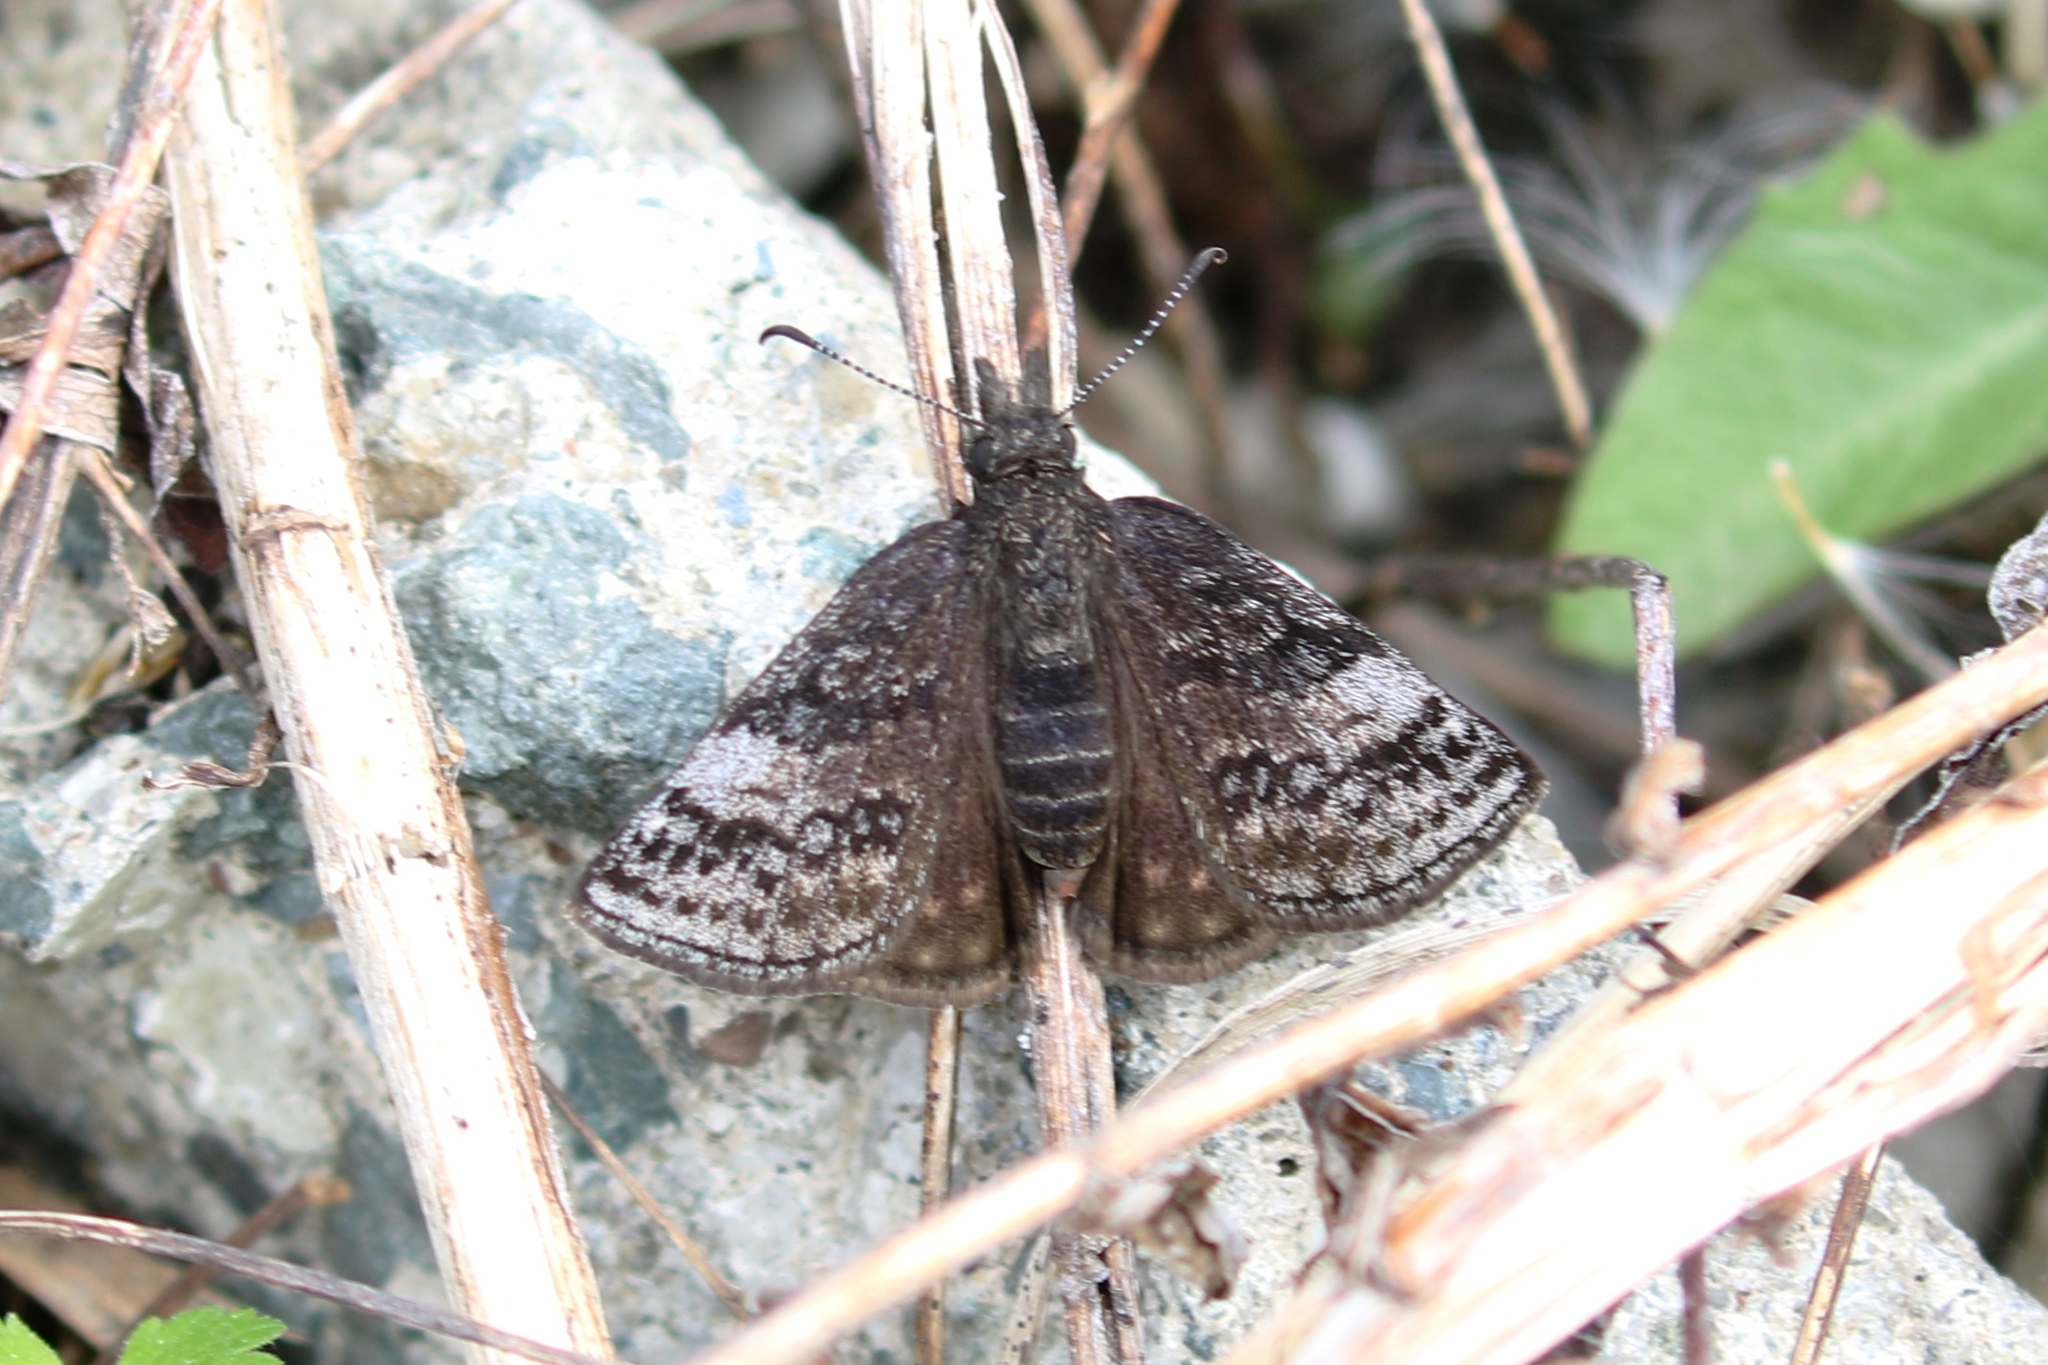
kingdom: Animalia
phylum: Arthropoda
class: Insecta
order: Lepidoptera
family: Hesperiidae
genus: Erynnis
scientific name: Erynnis icelus
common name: Dreamy duskywing
